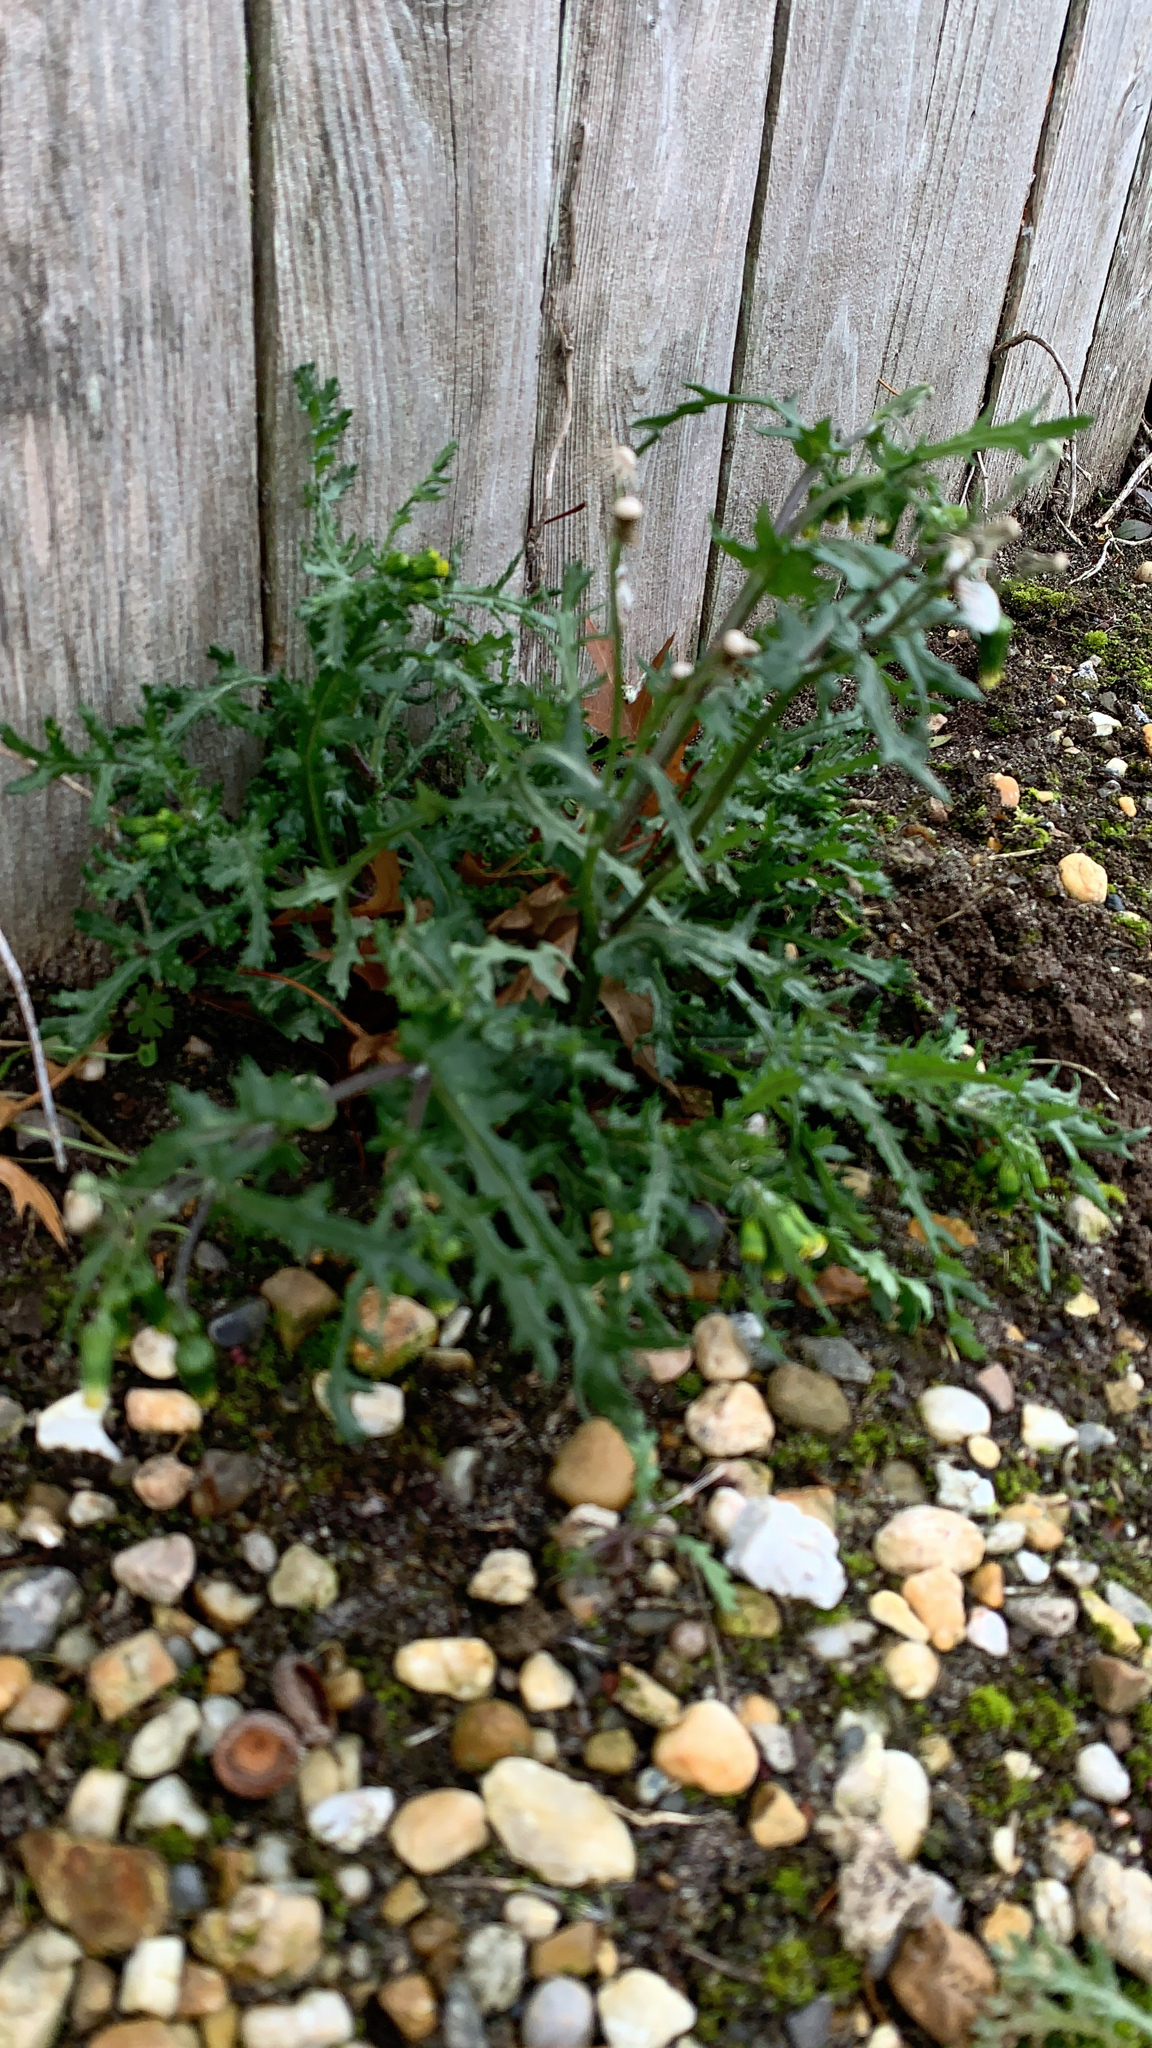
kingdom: Plantae
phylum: Tracheophyta
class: Magnoliopsida
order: Asterales
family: Asteraceae
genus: Senecio
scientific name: Senecio vulgaris
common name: Old-man-in-the-spring
